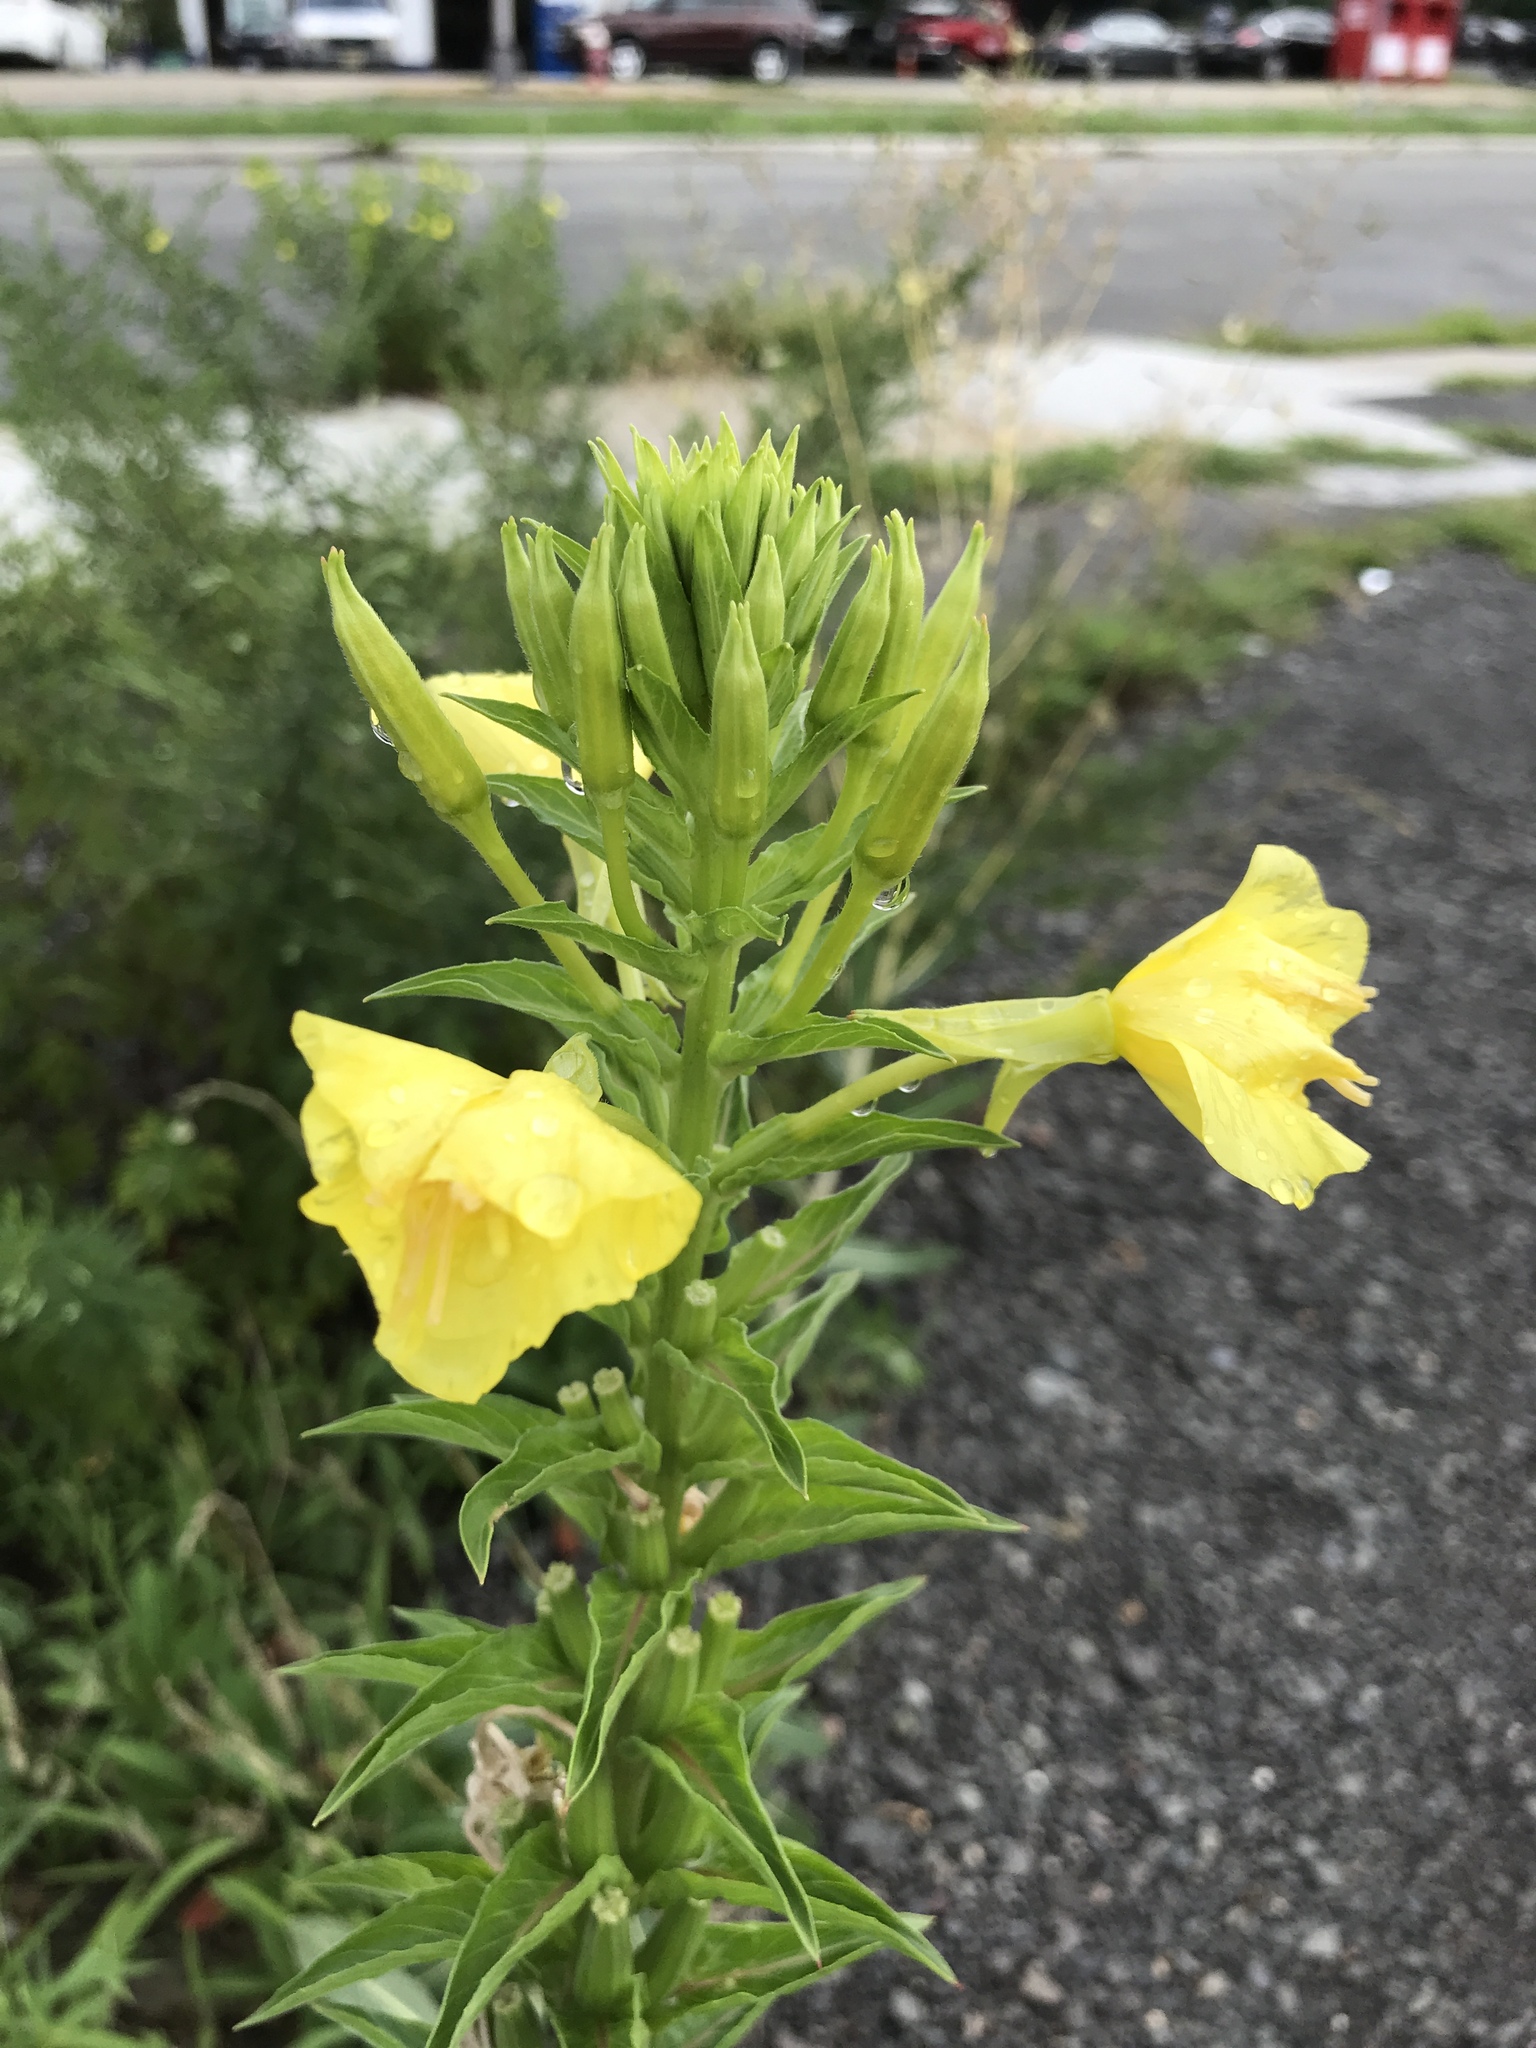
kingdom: Plantae
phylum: Tracheophyta
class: Magnoliopsida
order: Myrtales
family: Onagraceae
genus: Oenothera
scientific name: Oenothera biennis
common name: Common evening-primrose
